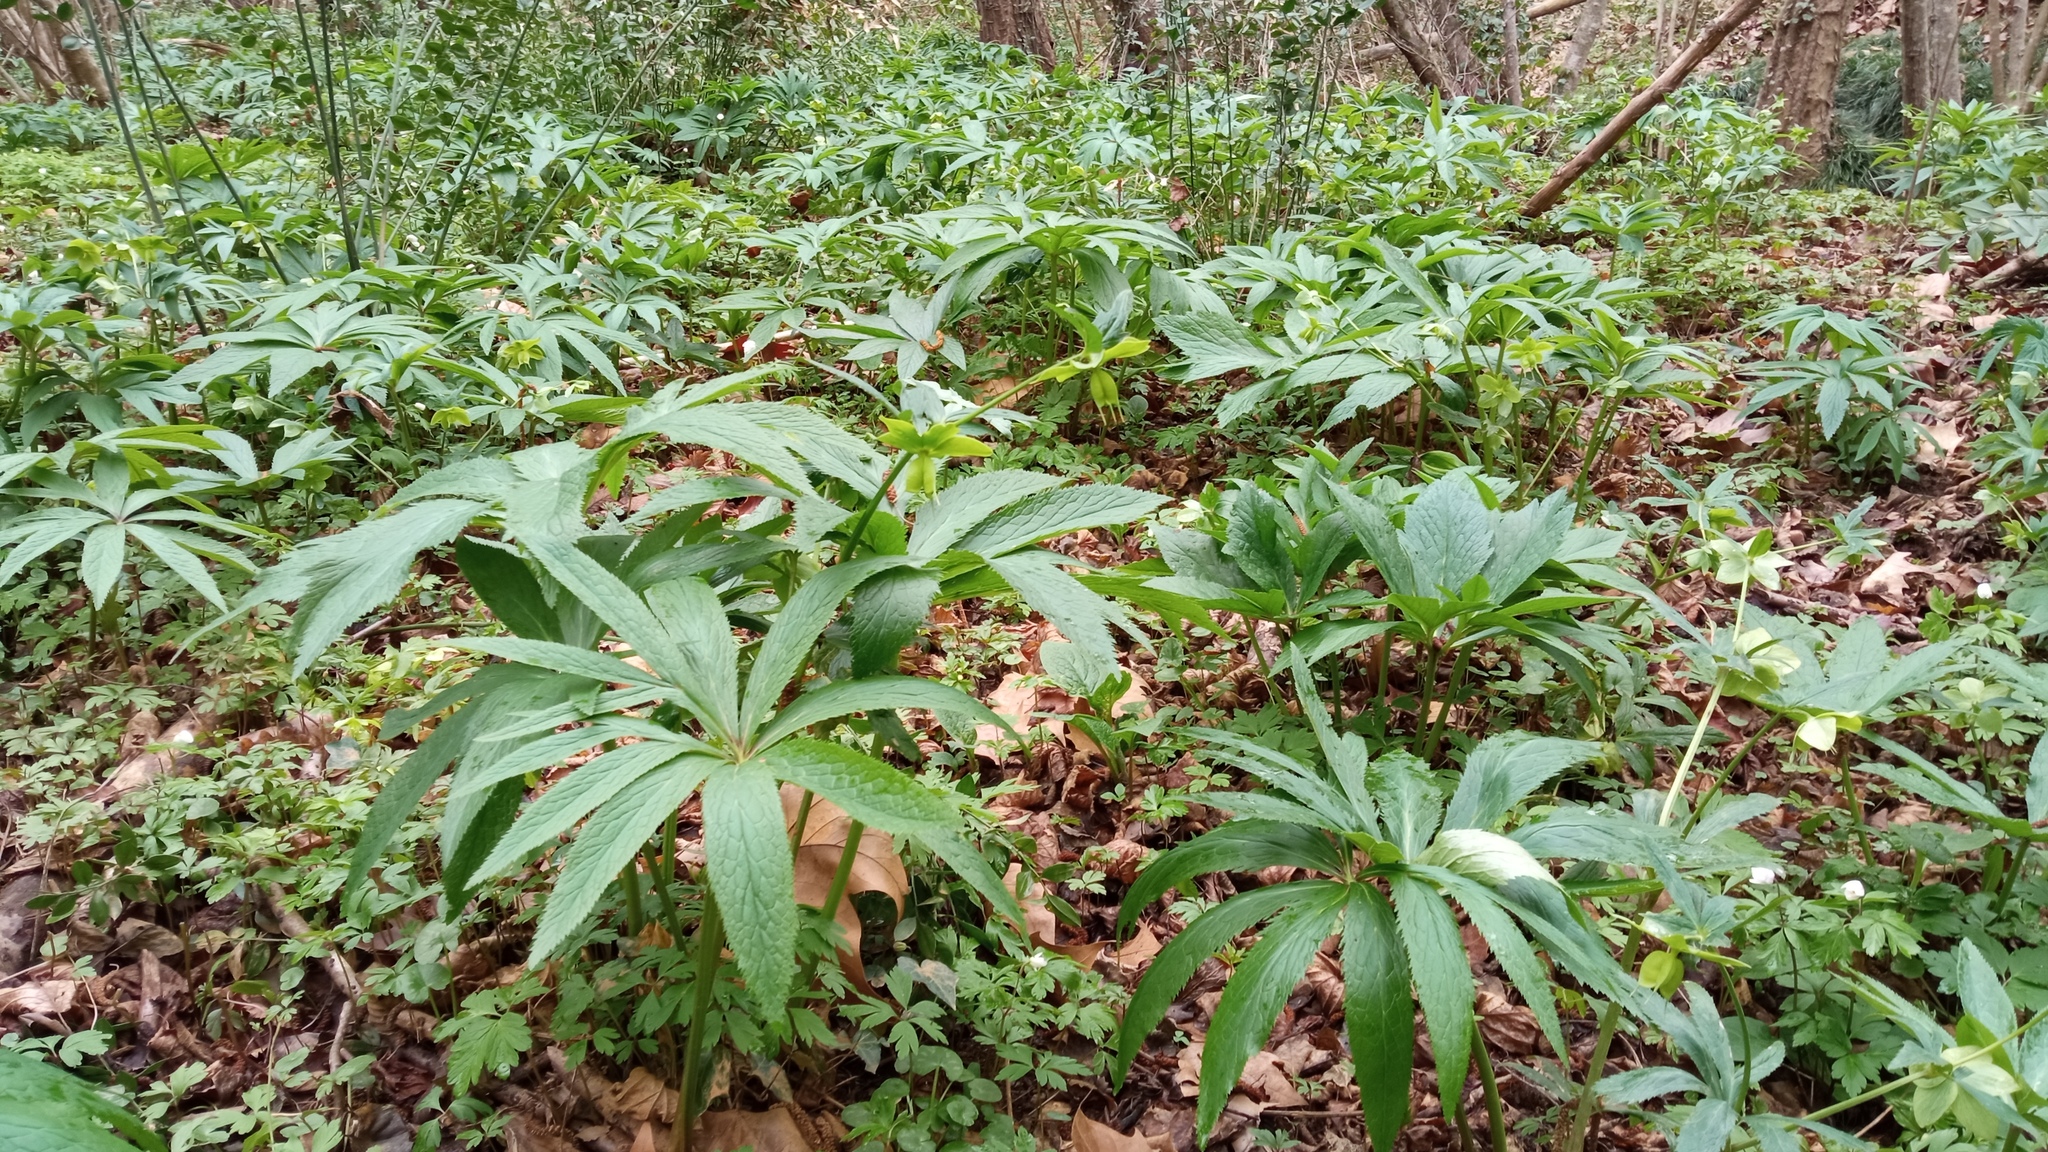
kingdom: Plantae
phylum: Tracheophyta
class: Magnoliopsida
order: Ranunculales
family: Ranunculaceae
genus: Helleborus
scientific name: Helleborus viridis
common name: Green hellebore
